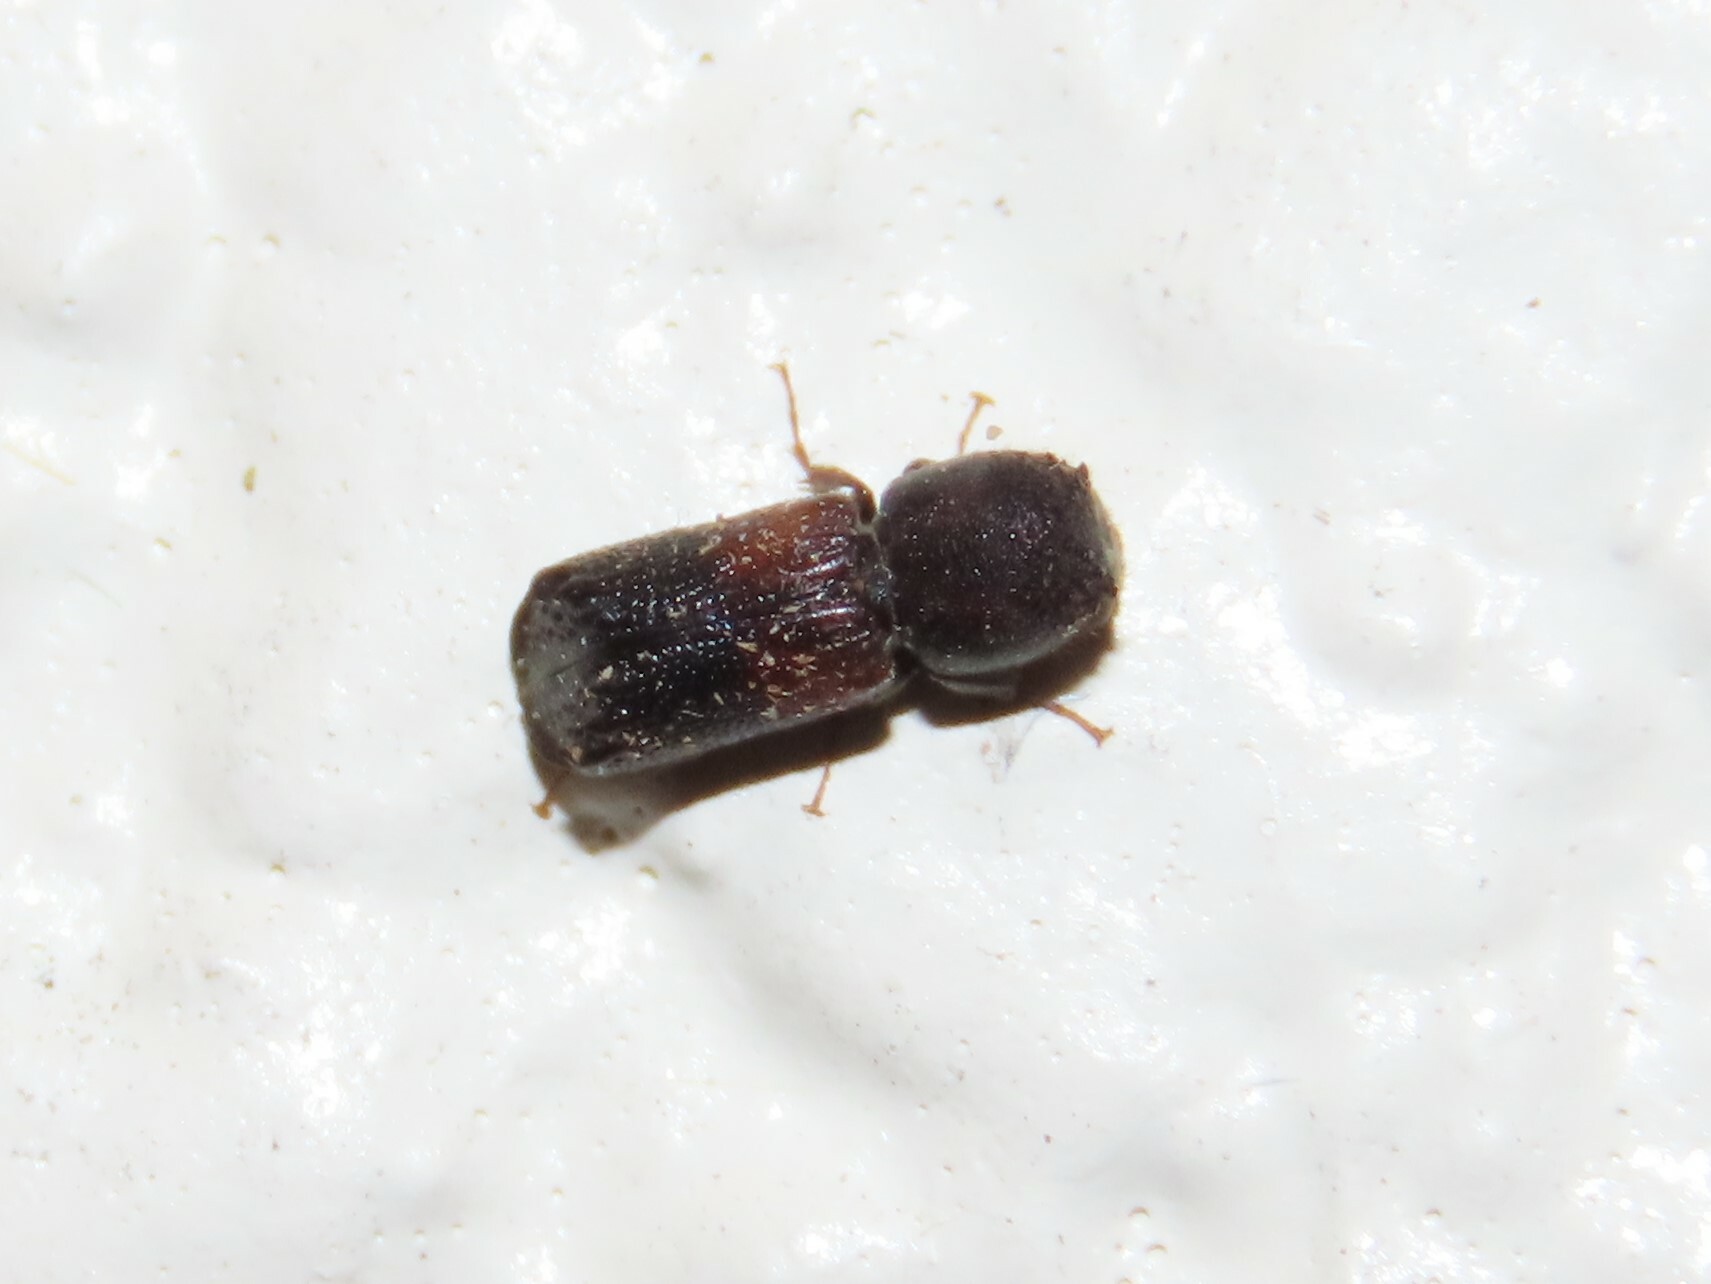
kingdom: Animalia
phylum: Arthropoda
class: Insecta
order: Coleoptera
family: Bostrichidae
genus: Xylobiops
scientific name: Xylobiops basilaris
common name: Red-shouldered bostrichid
